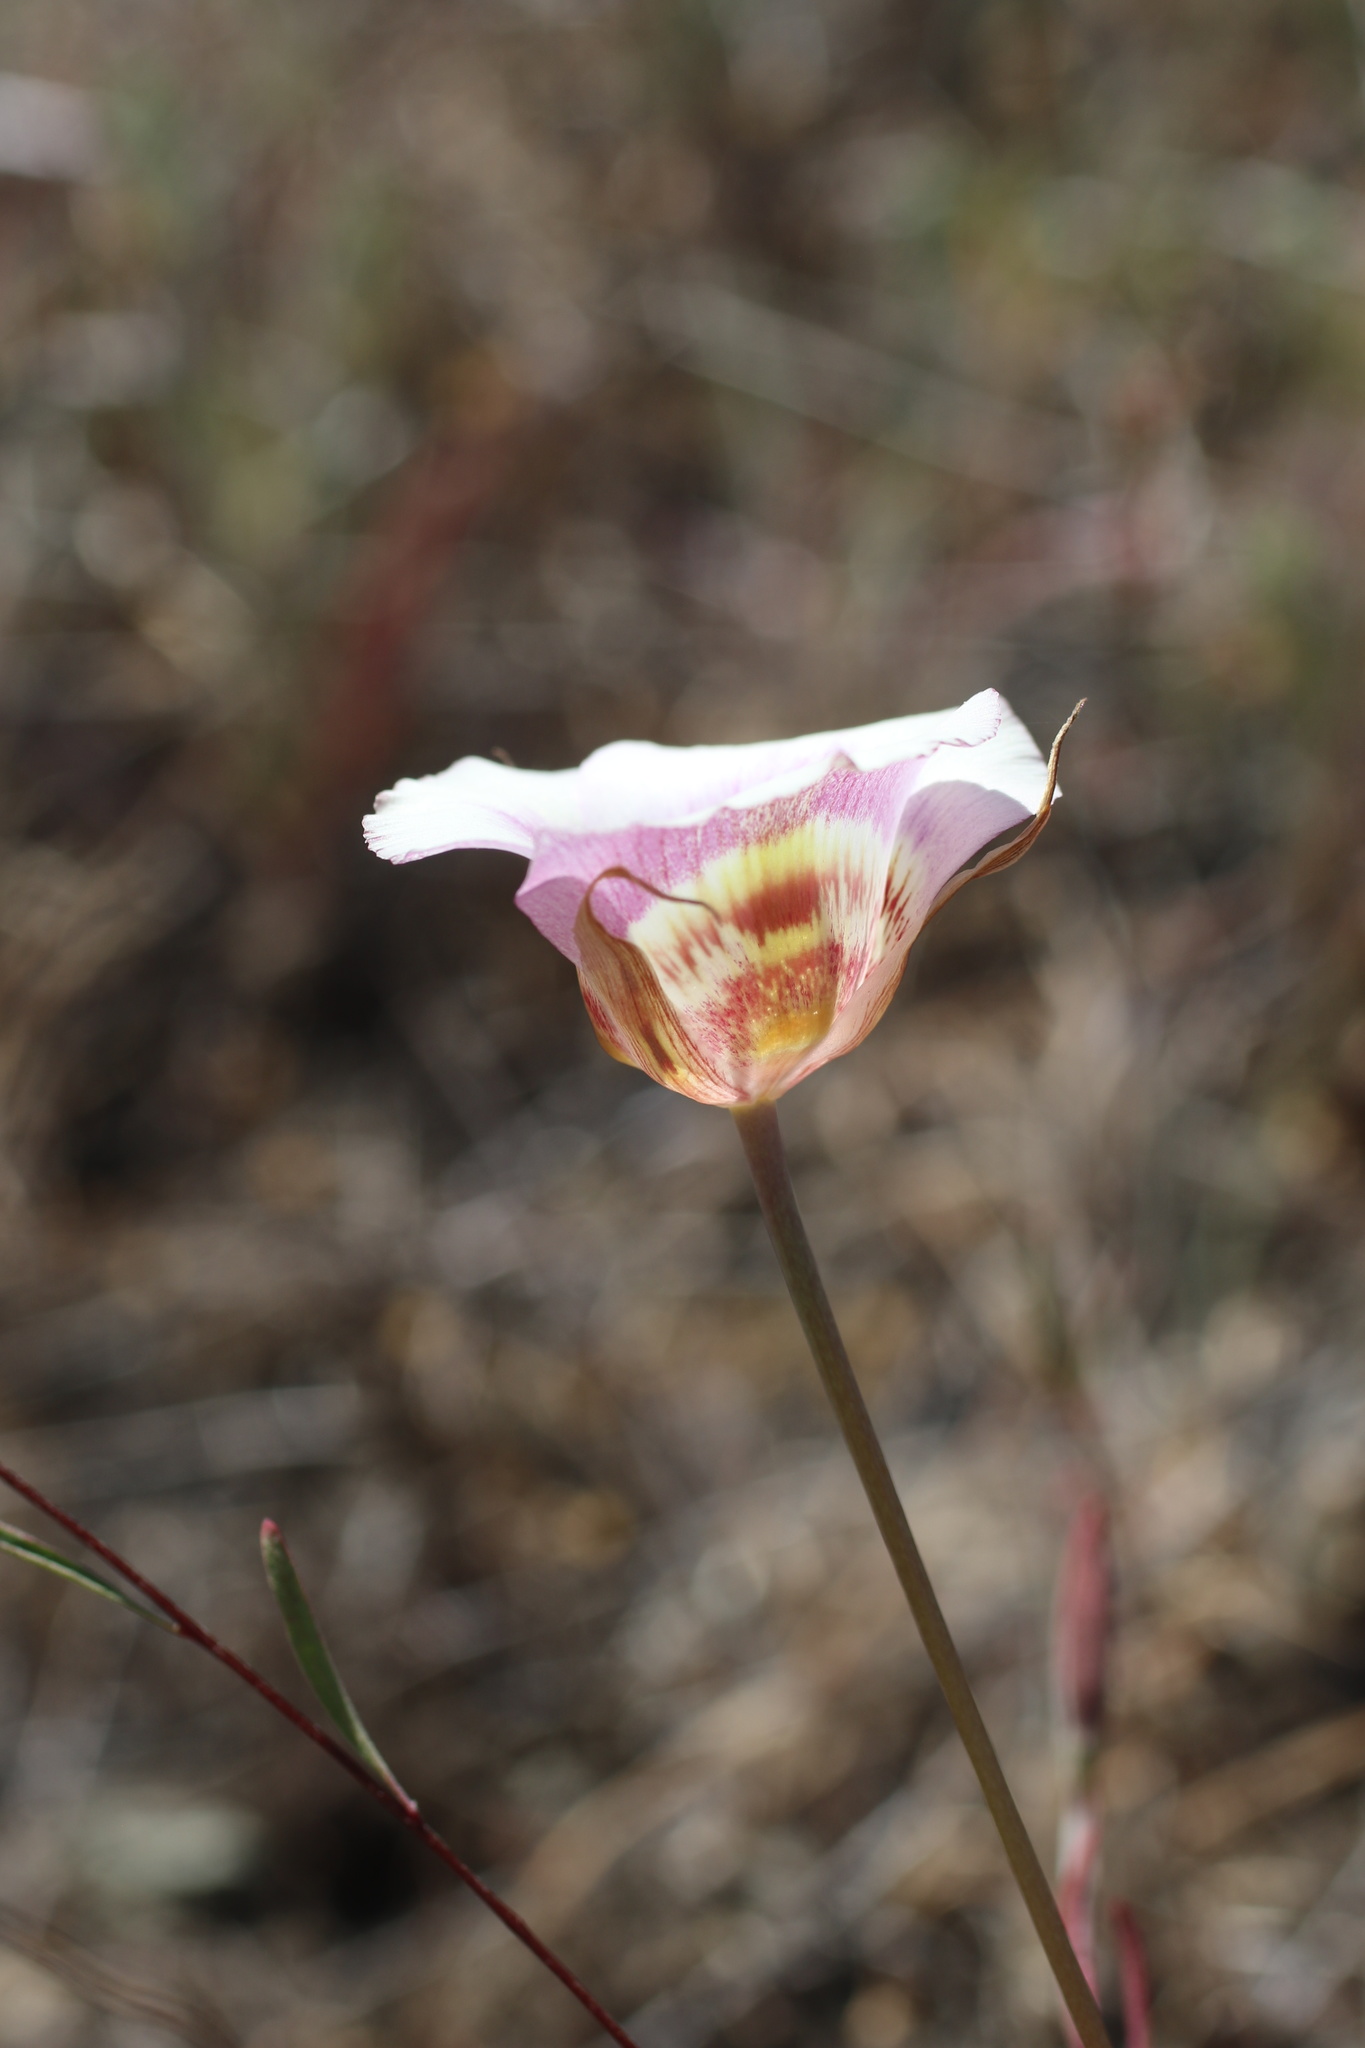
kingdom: Plantae
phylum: Tracheophyta
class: Liliopsida
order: Liliales
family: Liliaceae
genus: Calochortus
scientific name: Calochortus argillosus
